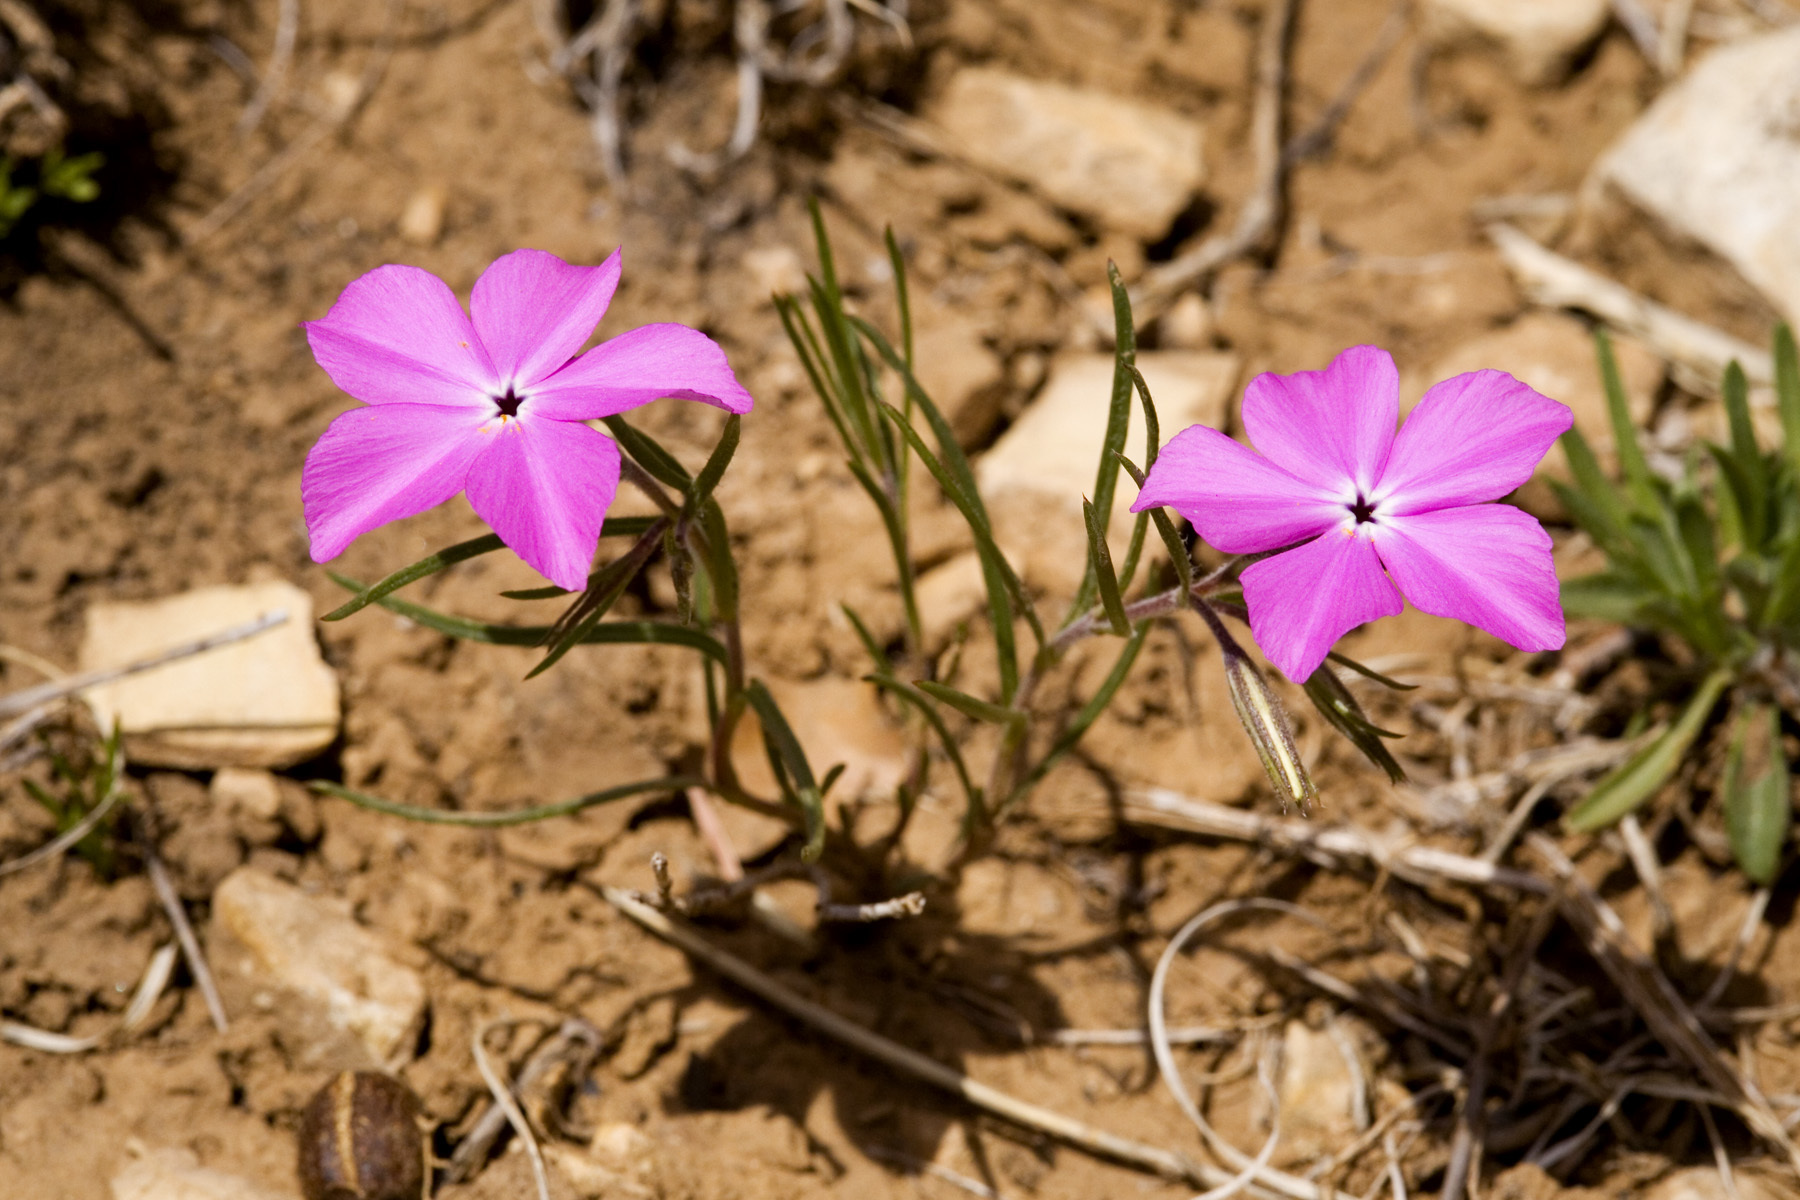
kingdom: Plantae
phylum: Tracheophyta
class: Magnoliopsida
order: Ericales
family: Polemoniaceae
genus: Phlox
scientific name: Phlox nana
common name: Santa fe phlox
